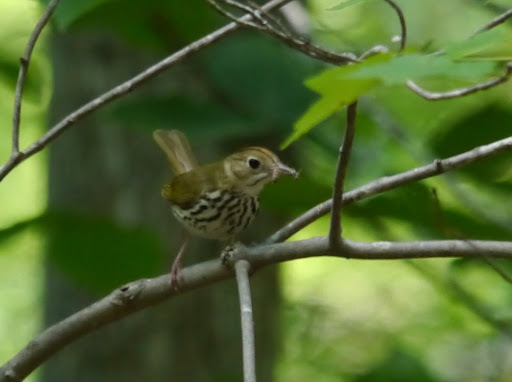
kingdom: Animalia
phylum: Chordata
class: Aves
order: Passeriformes
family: Parulidae
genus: Seiurus
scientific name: Seiurus aurocapilla
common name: Ovenbird
